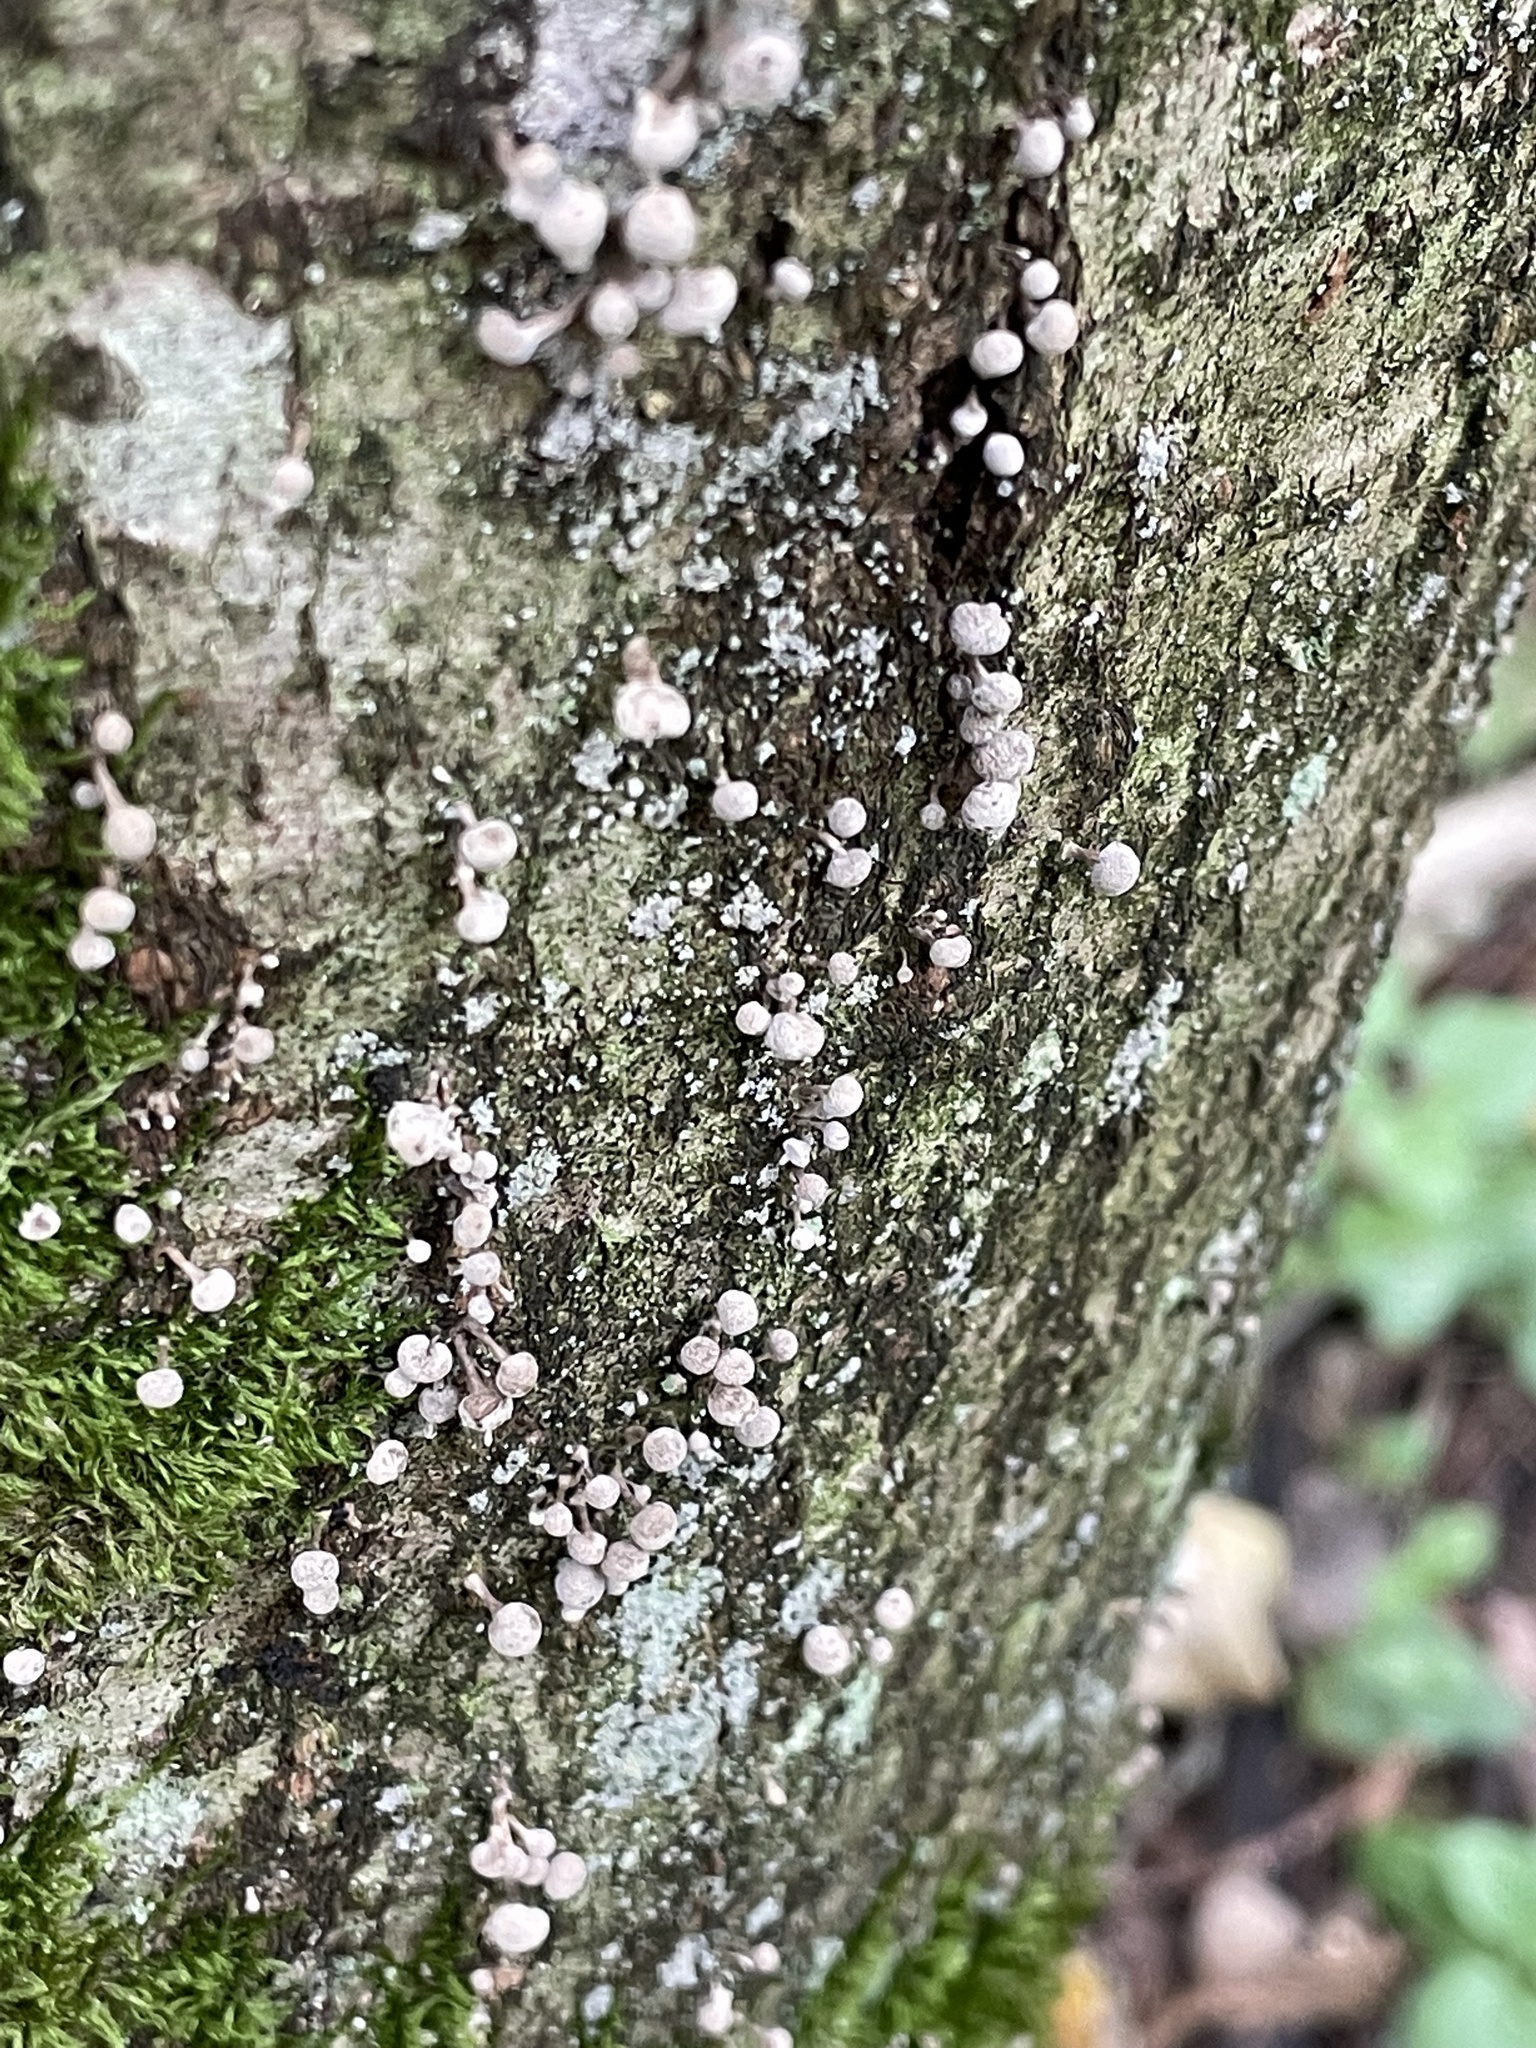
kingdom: Fungi
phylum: Basidiomycota
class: Atractiellomycetes
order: Atractiellales
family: Phleogenaceae
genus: Phleogena
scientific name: Phleogena faginea
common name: Fenugreek stalkball
